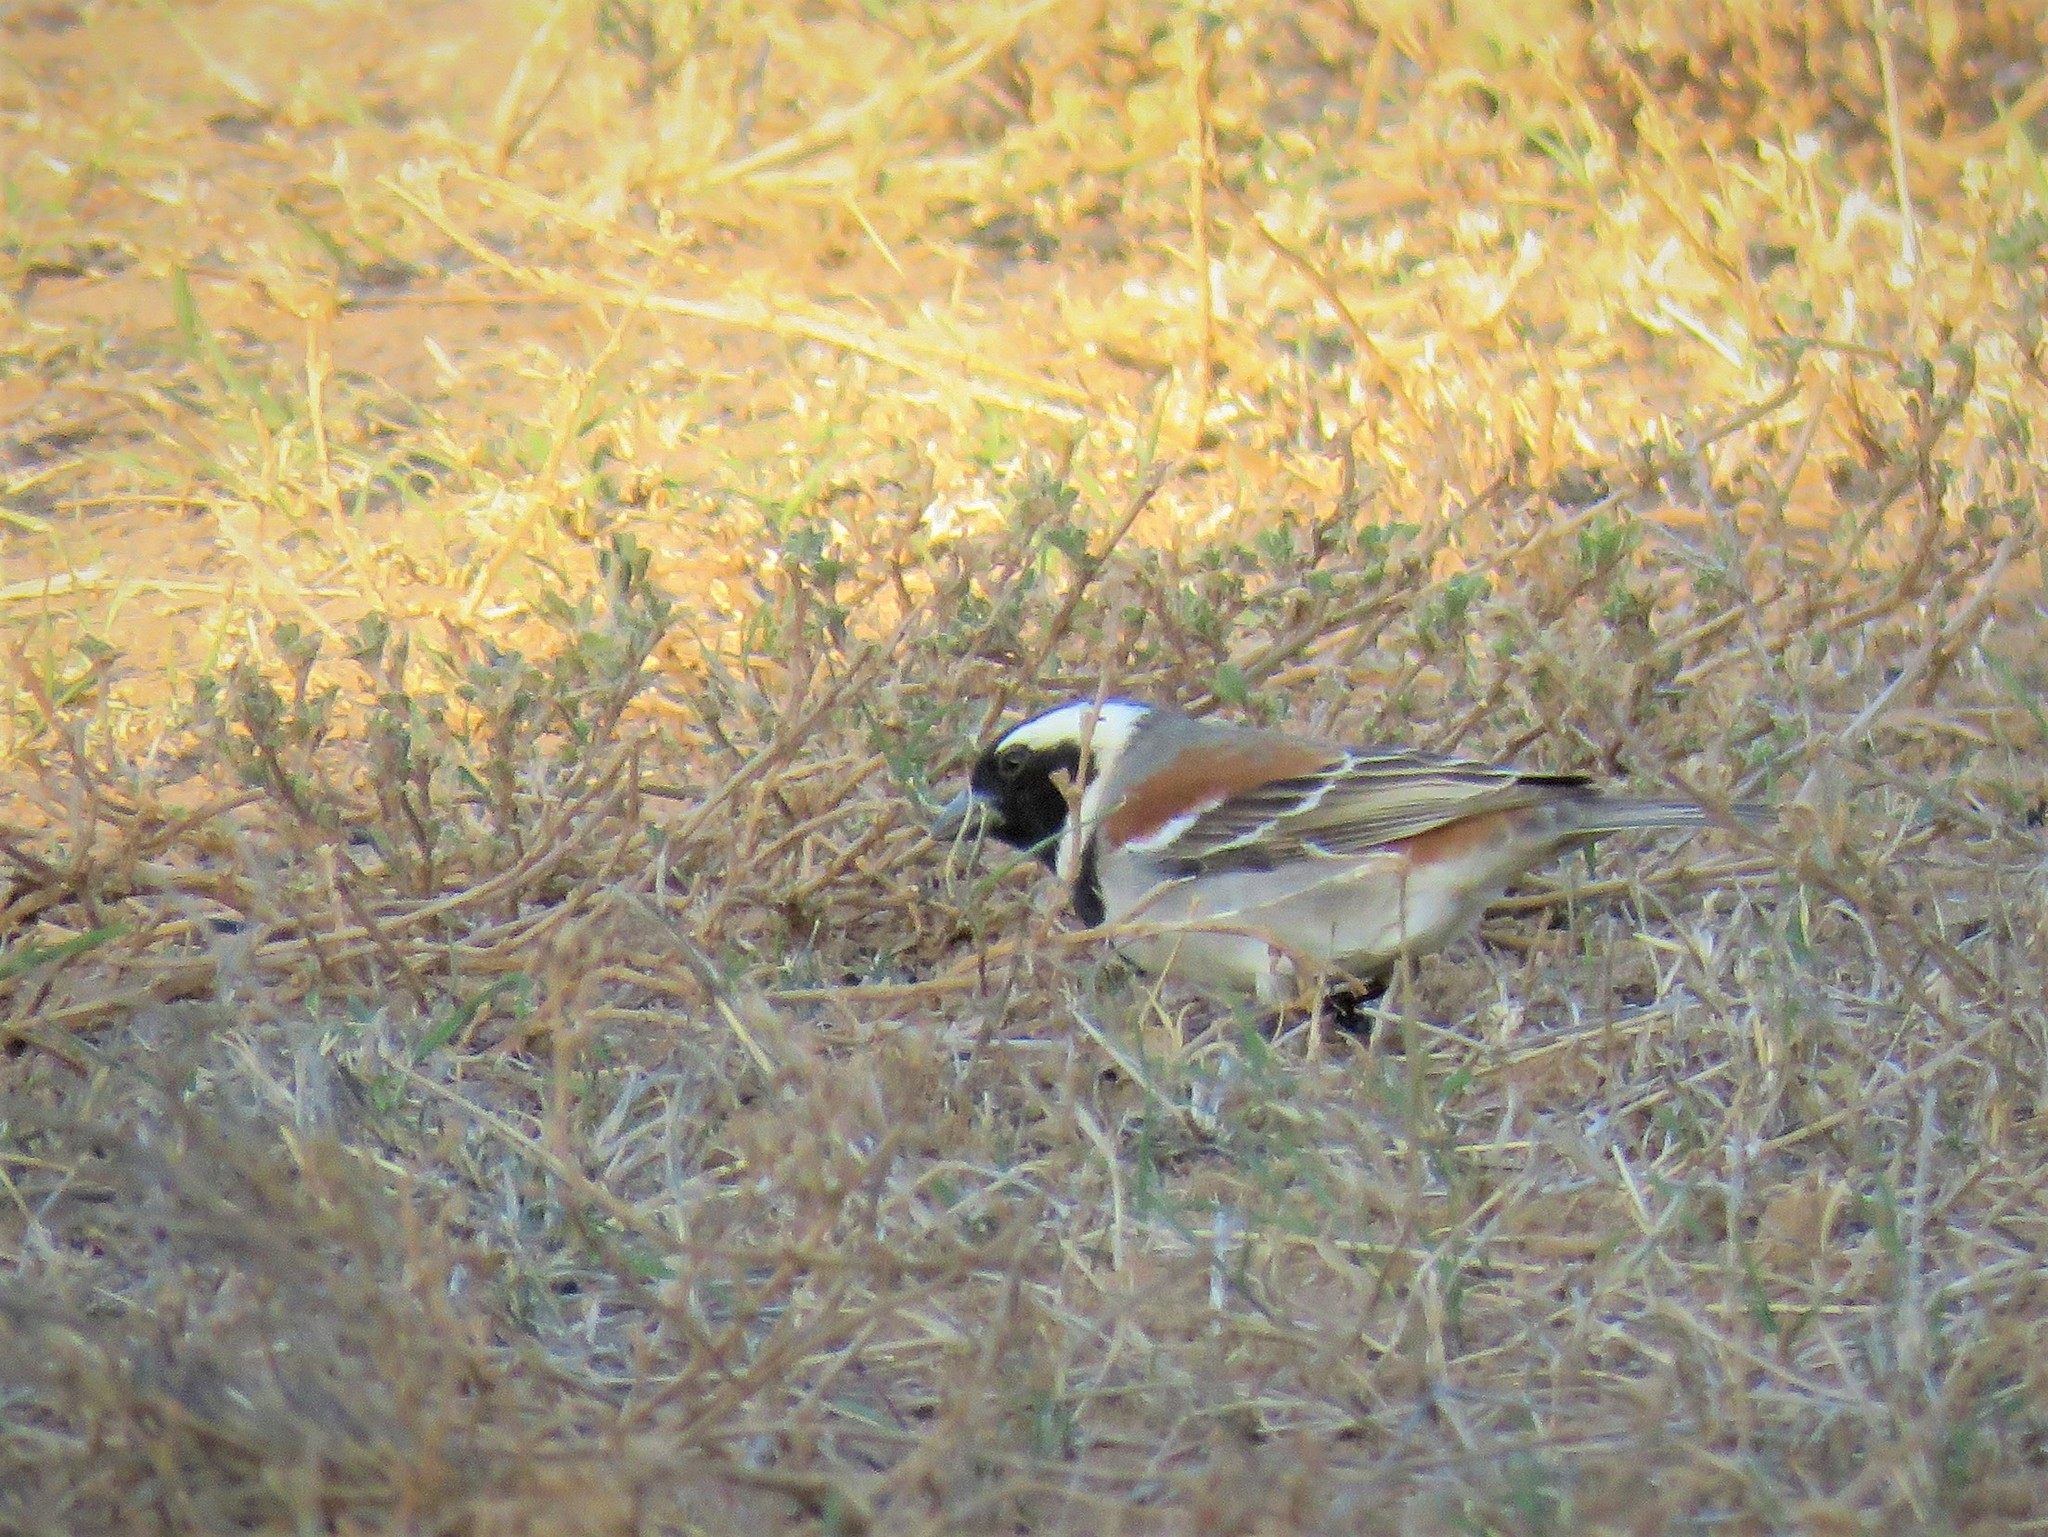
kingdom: Animalia
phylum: Chordata
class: Aves
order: Passeriformes
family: Passeridae
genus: Passer
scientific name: Passer melanurus
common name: Cape sparrow
